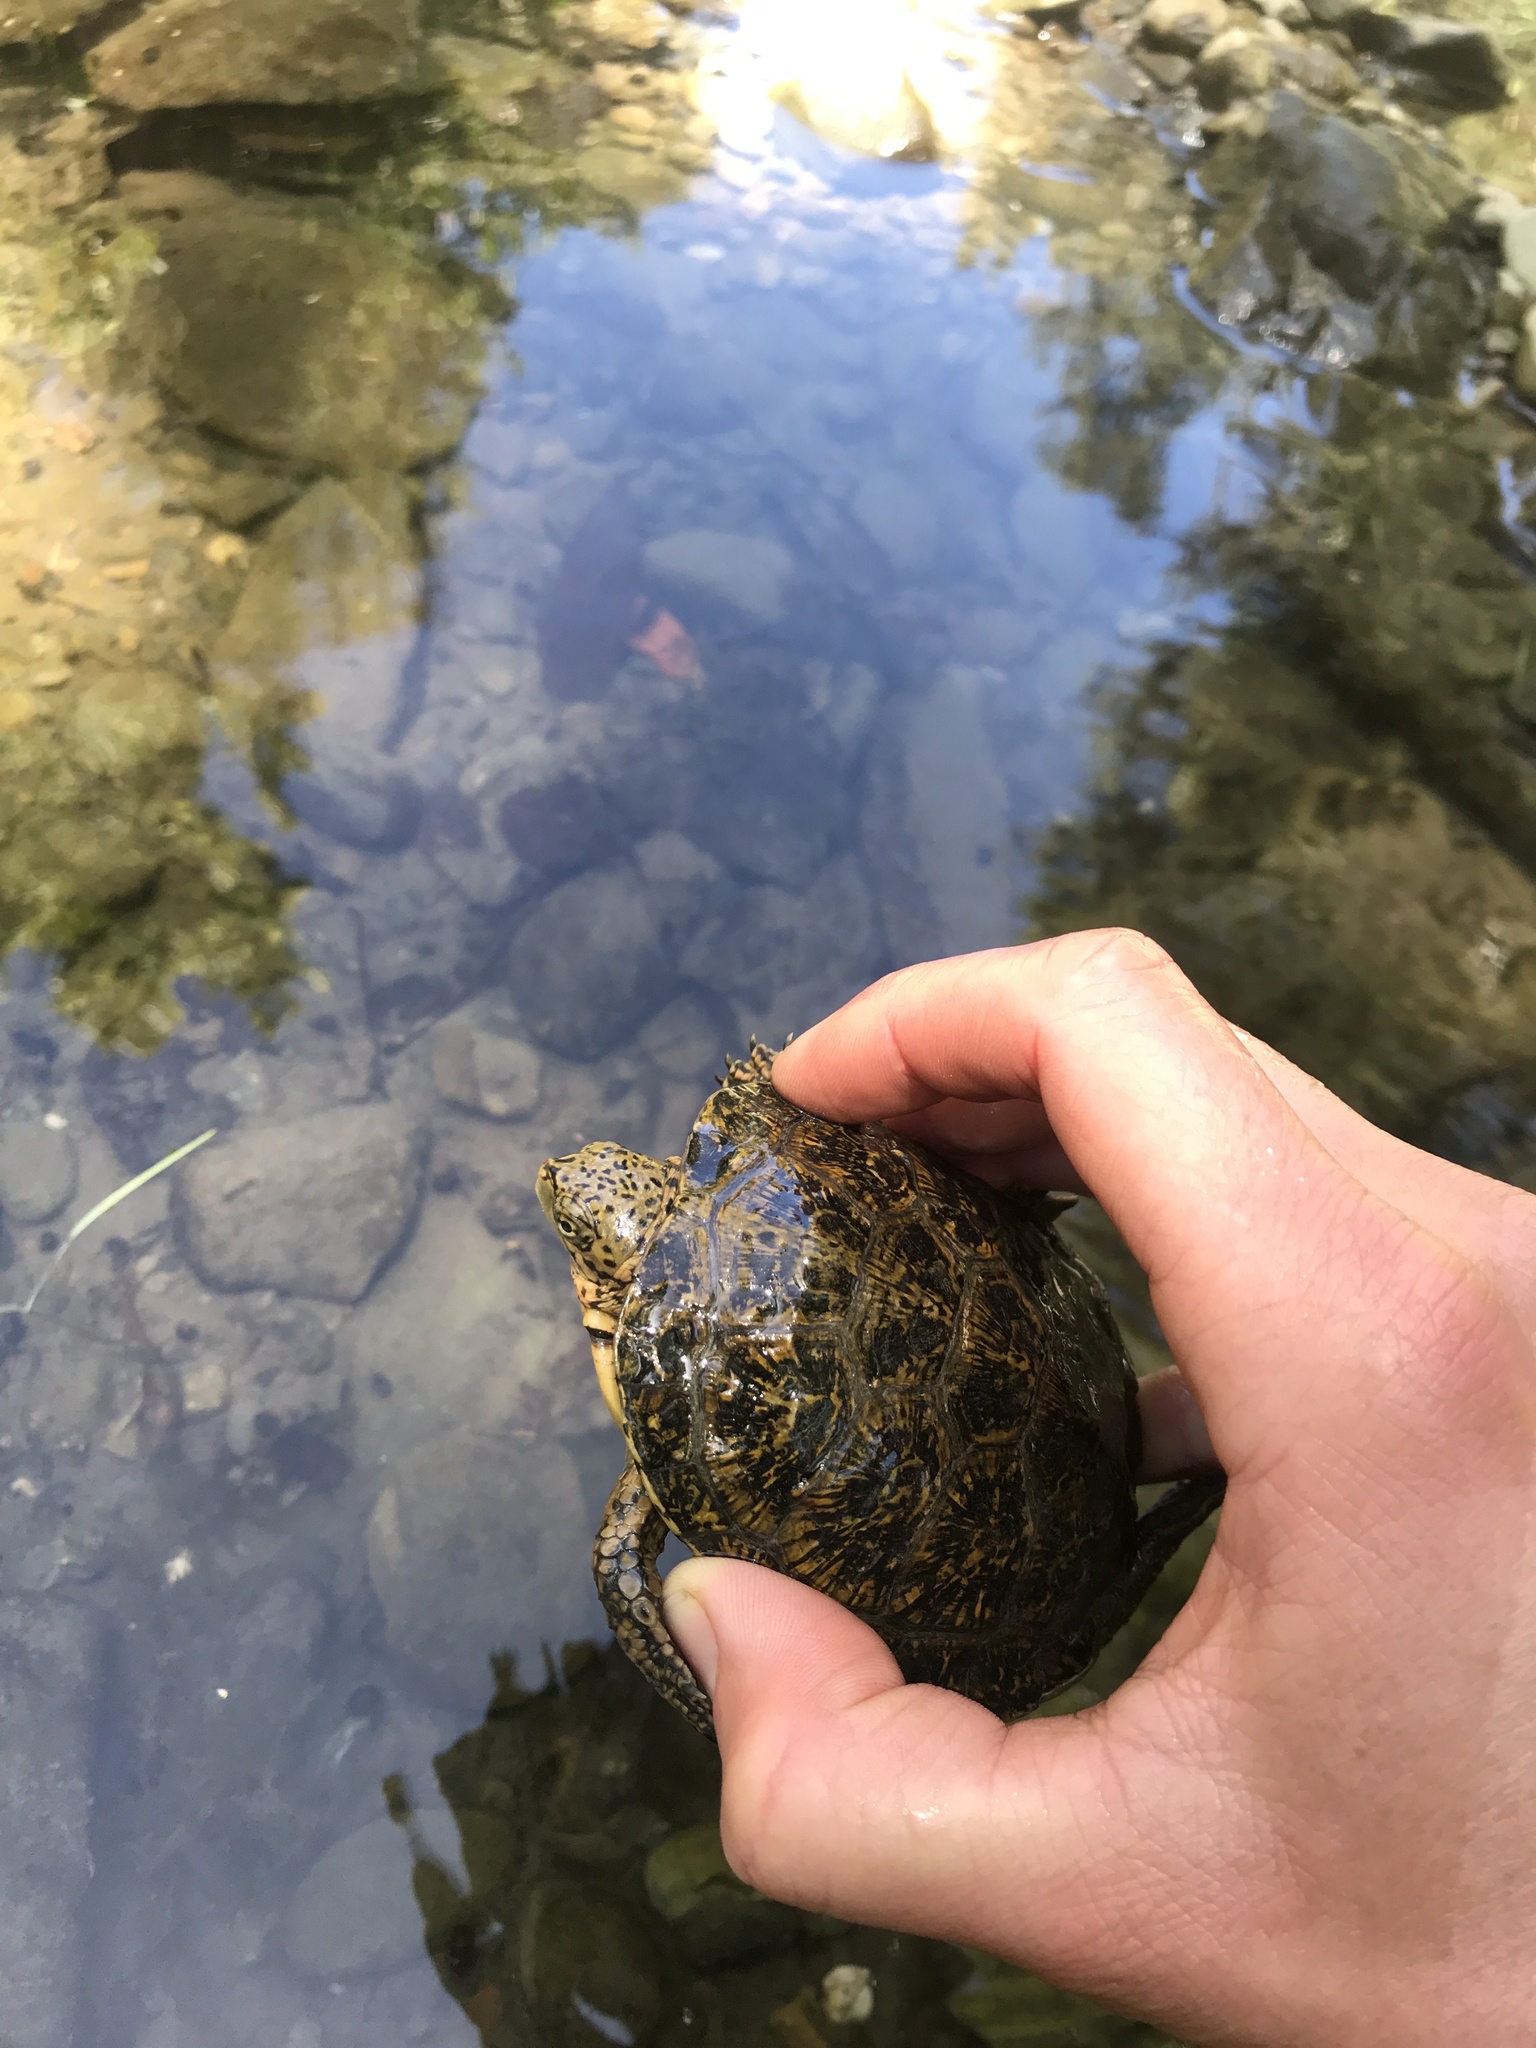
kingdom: Animalia
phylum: Chordata
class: Testudines
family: Emydidae
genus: Actinemys
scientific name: Actinemys marmorata
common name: Western pond turtle
